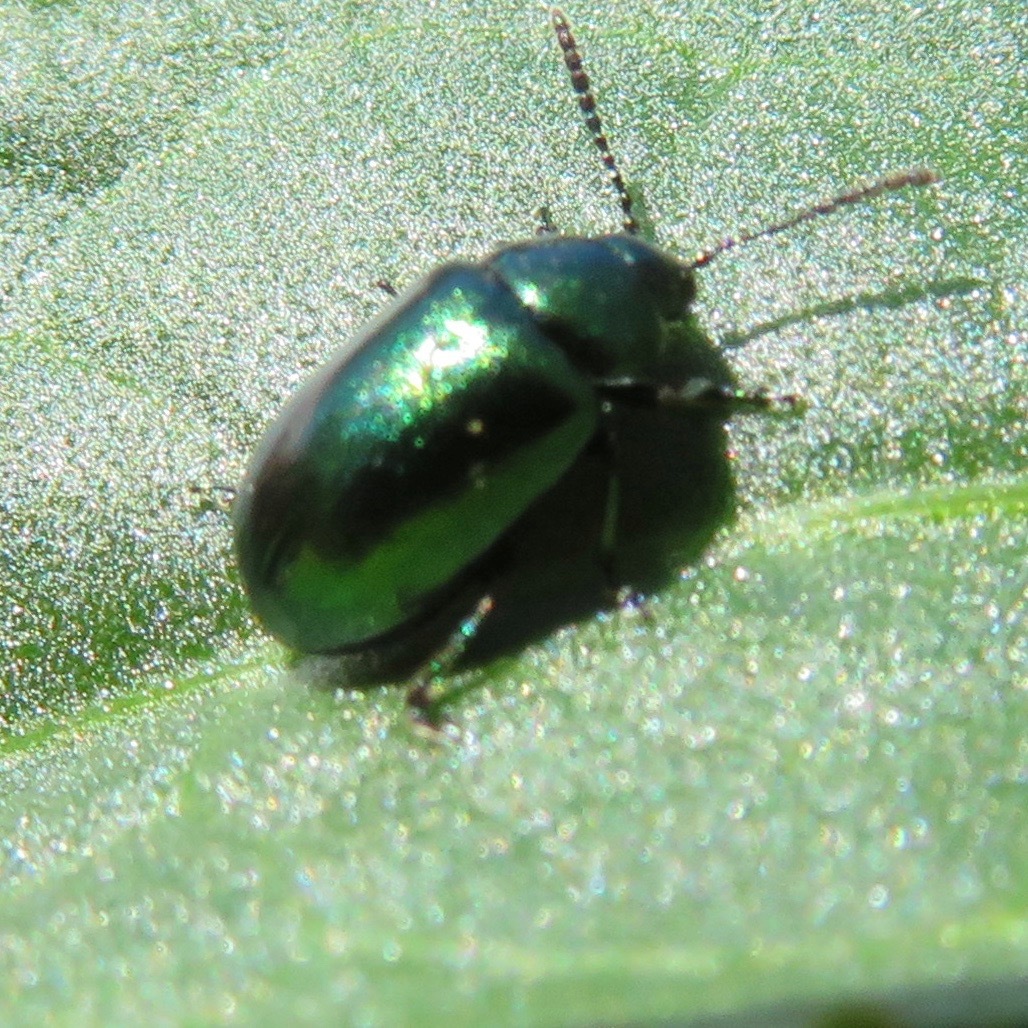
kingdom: Animalia
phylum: Arthropoda
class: Insecta
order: Coleoptera
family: Chrysomelidae
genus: Chrysochus
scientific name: Chrysochus cobaltinus
